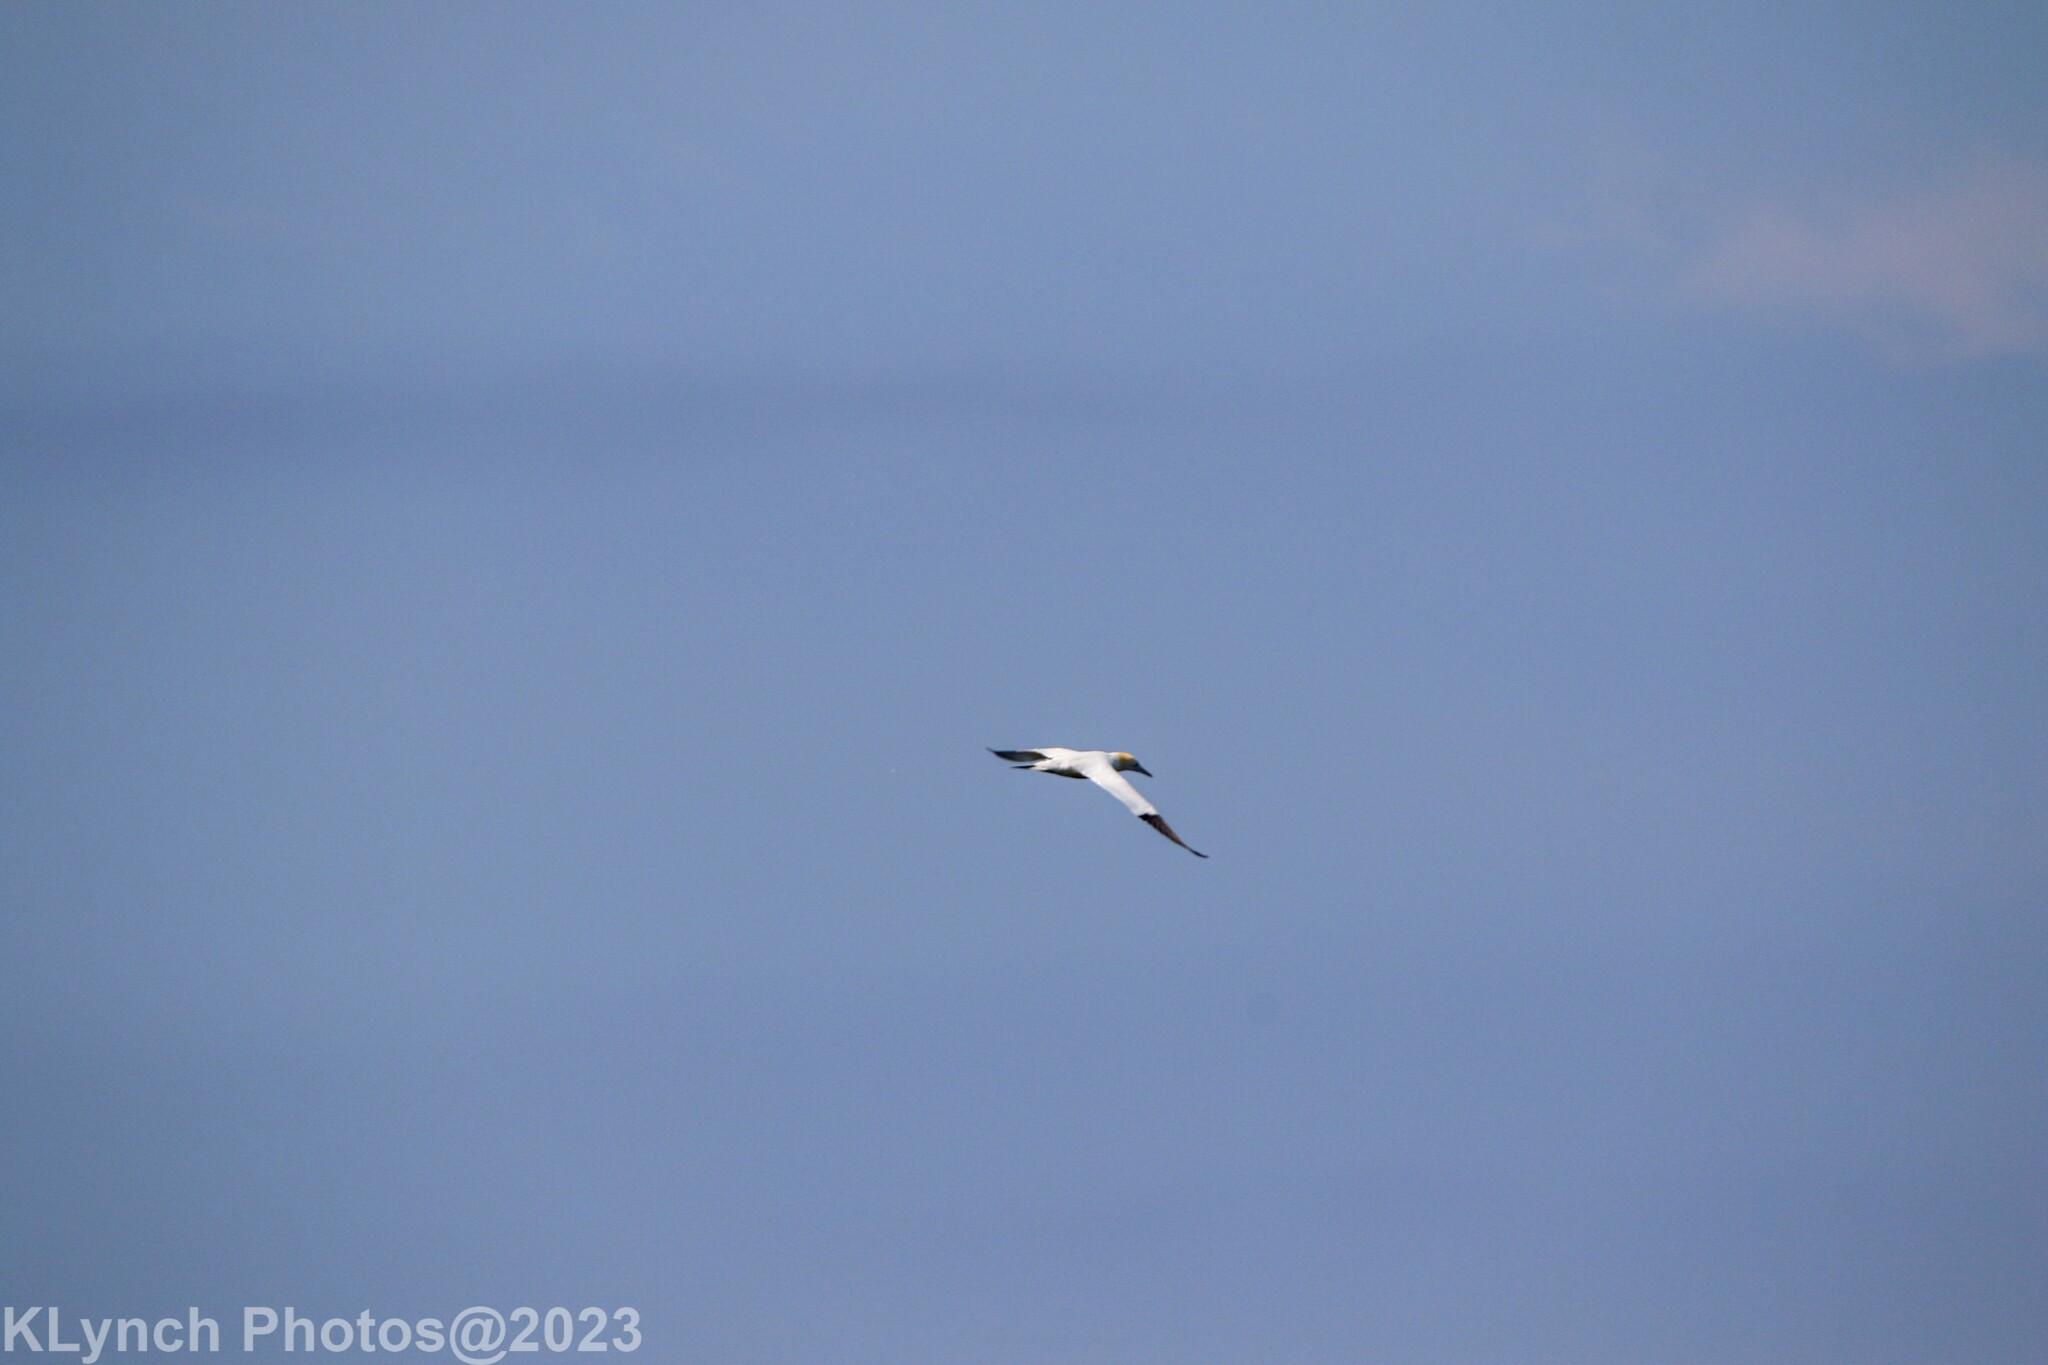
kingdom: Animalia
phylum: Chordata
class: Aves
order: Suliformes
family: Sulidae
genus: Morus
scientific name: Morus bassanus
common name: Northern gannet
